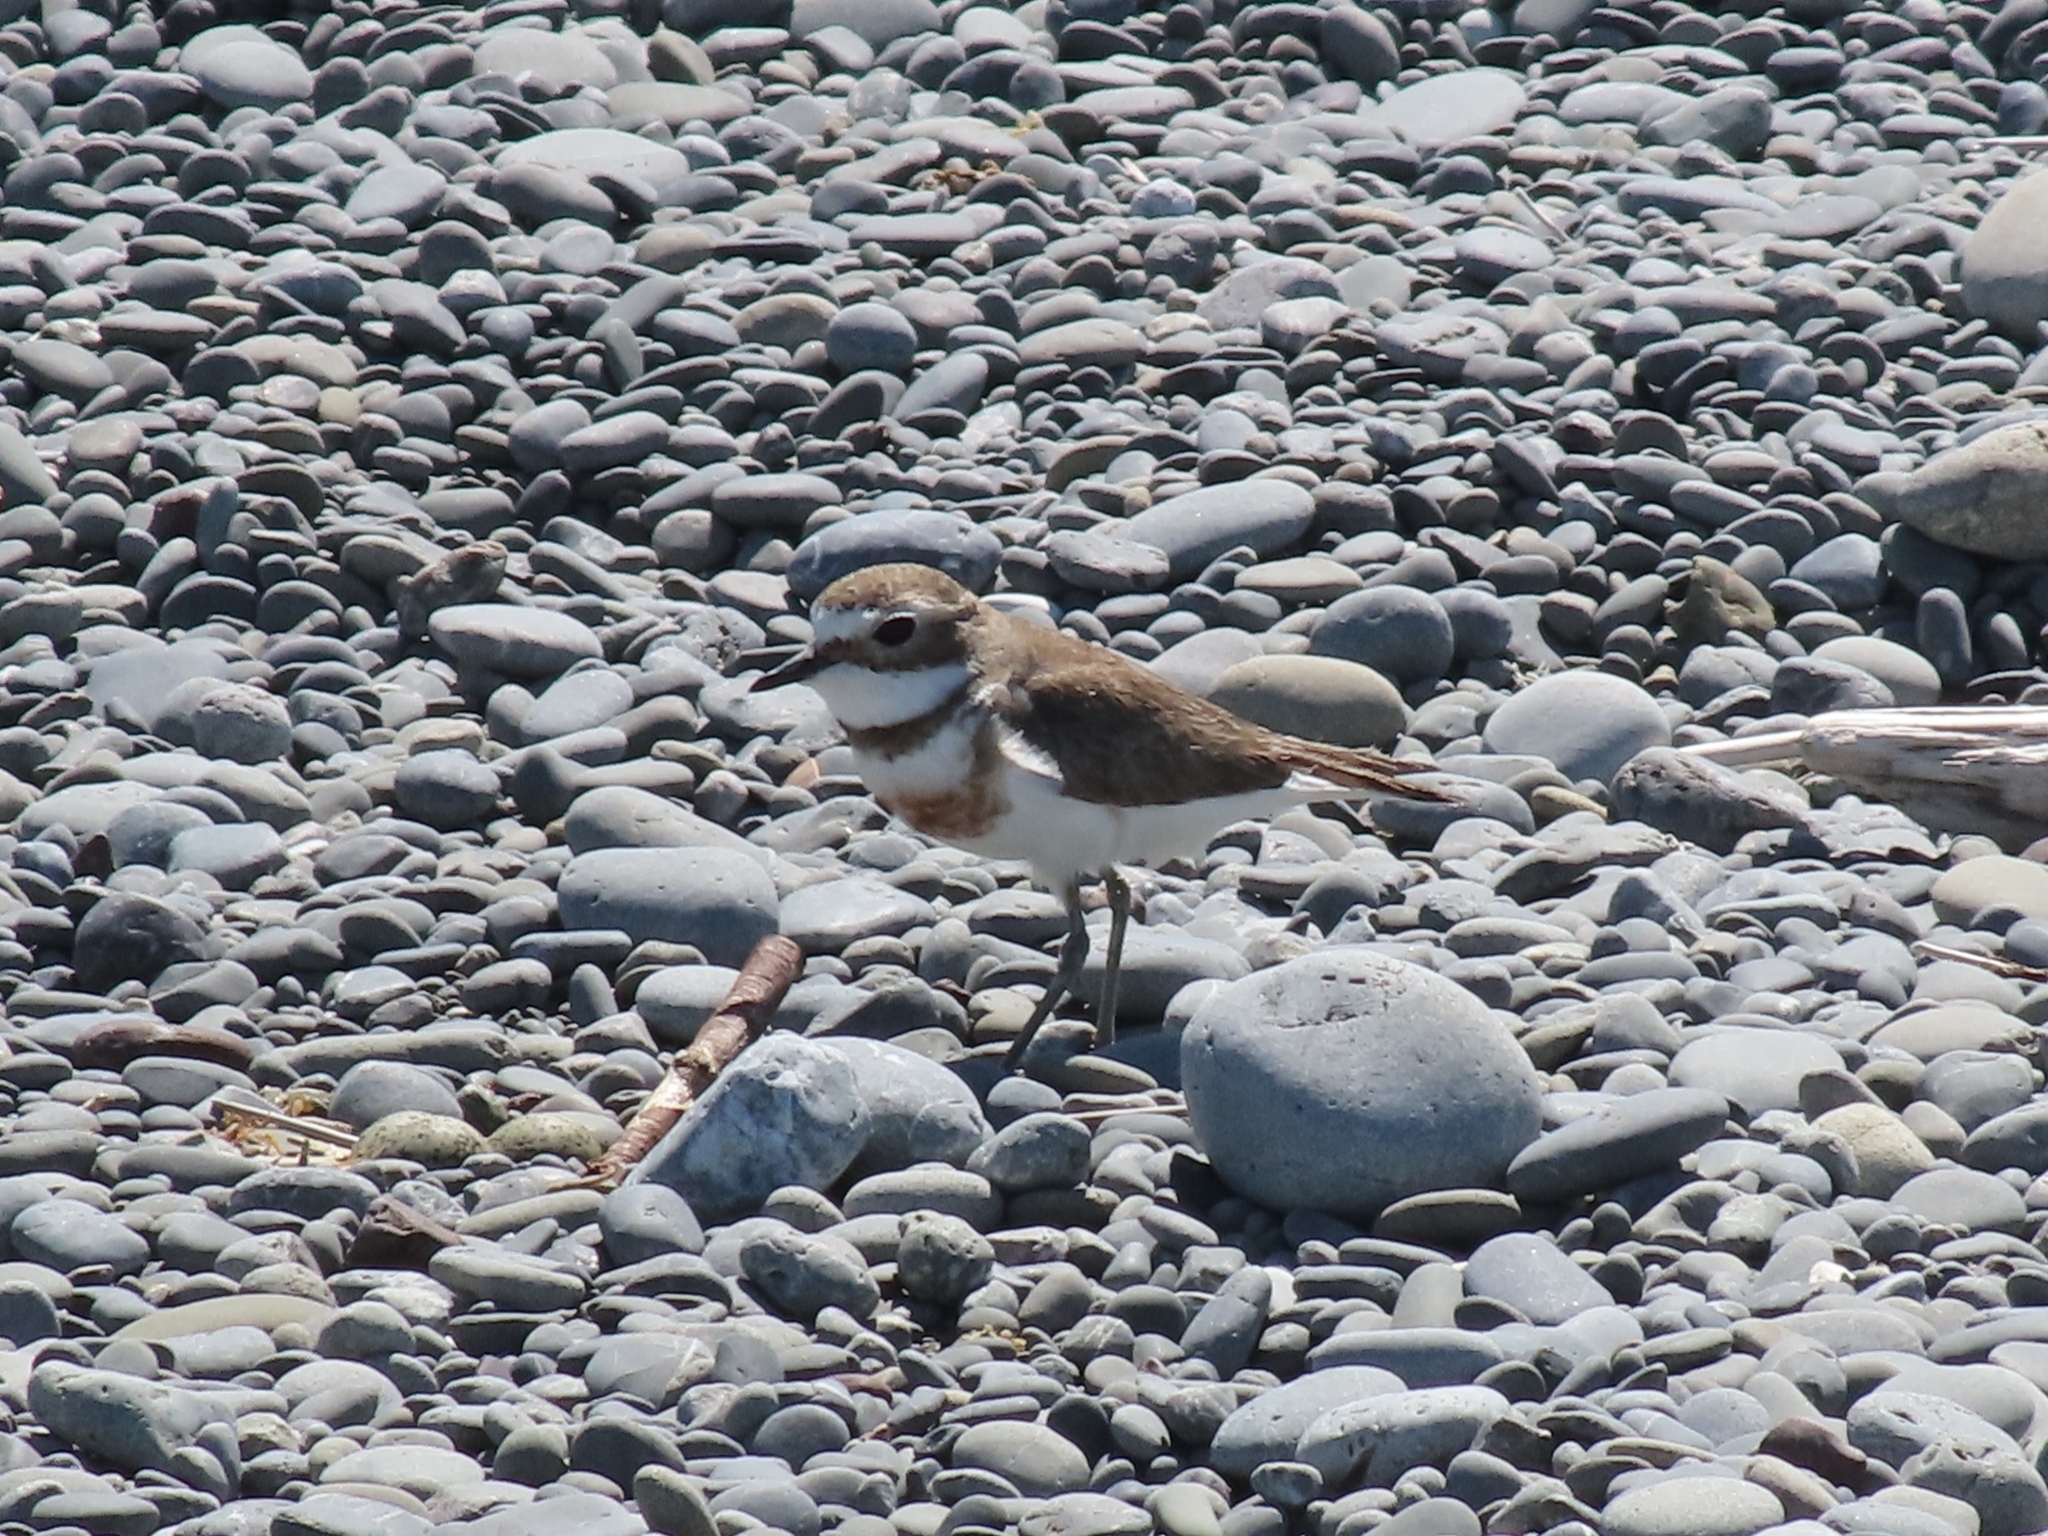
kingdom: Animalia
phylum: Chordata
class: Aves
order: Charadriiformes
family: Charadriidae
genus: Anarhynchus
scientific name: Anarhynchus
